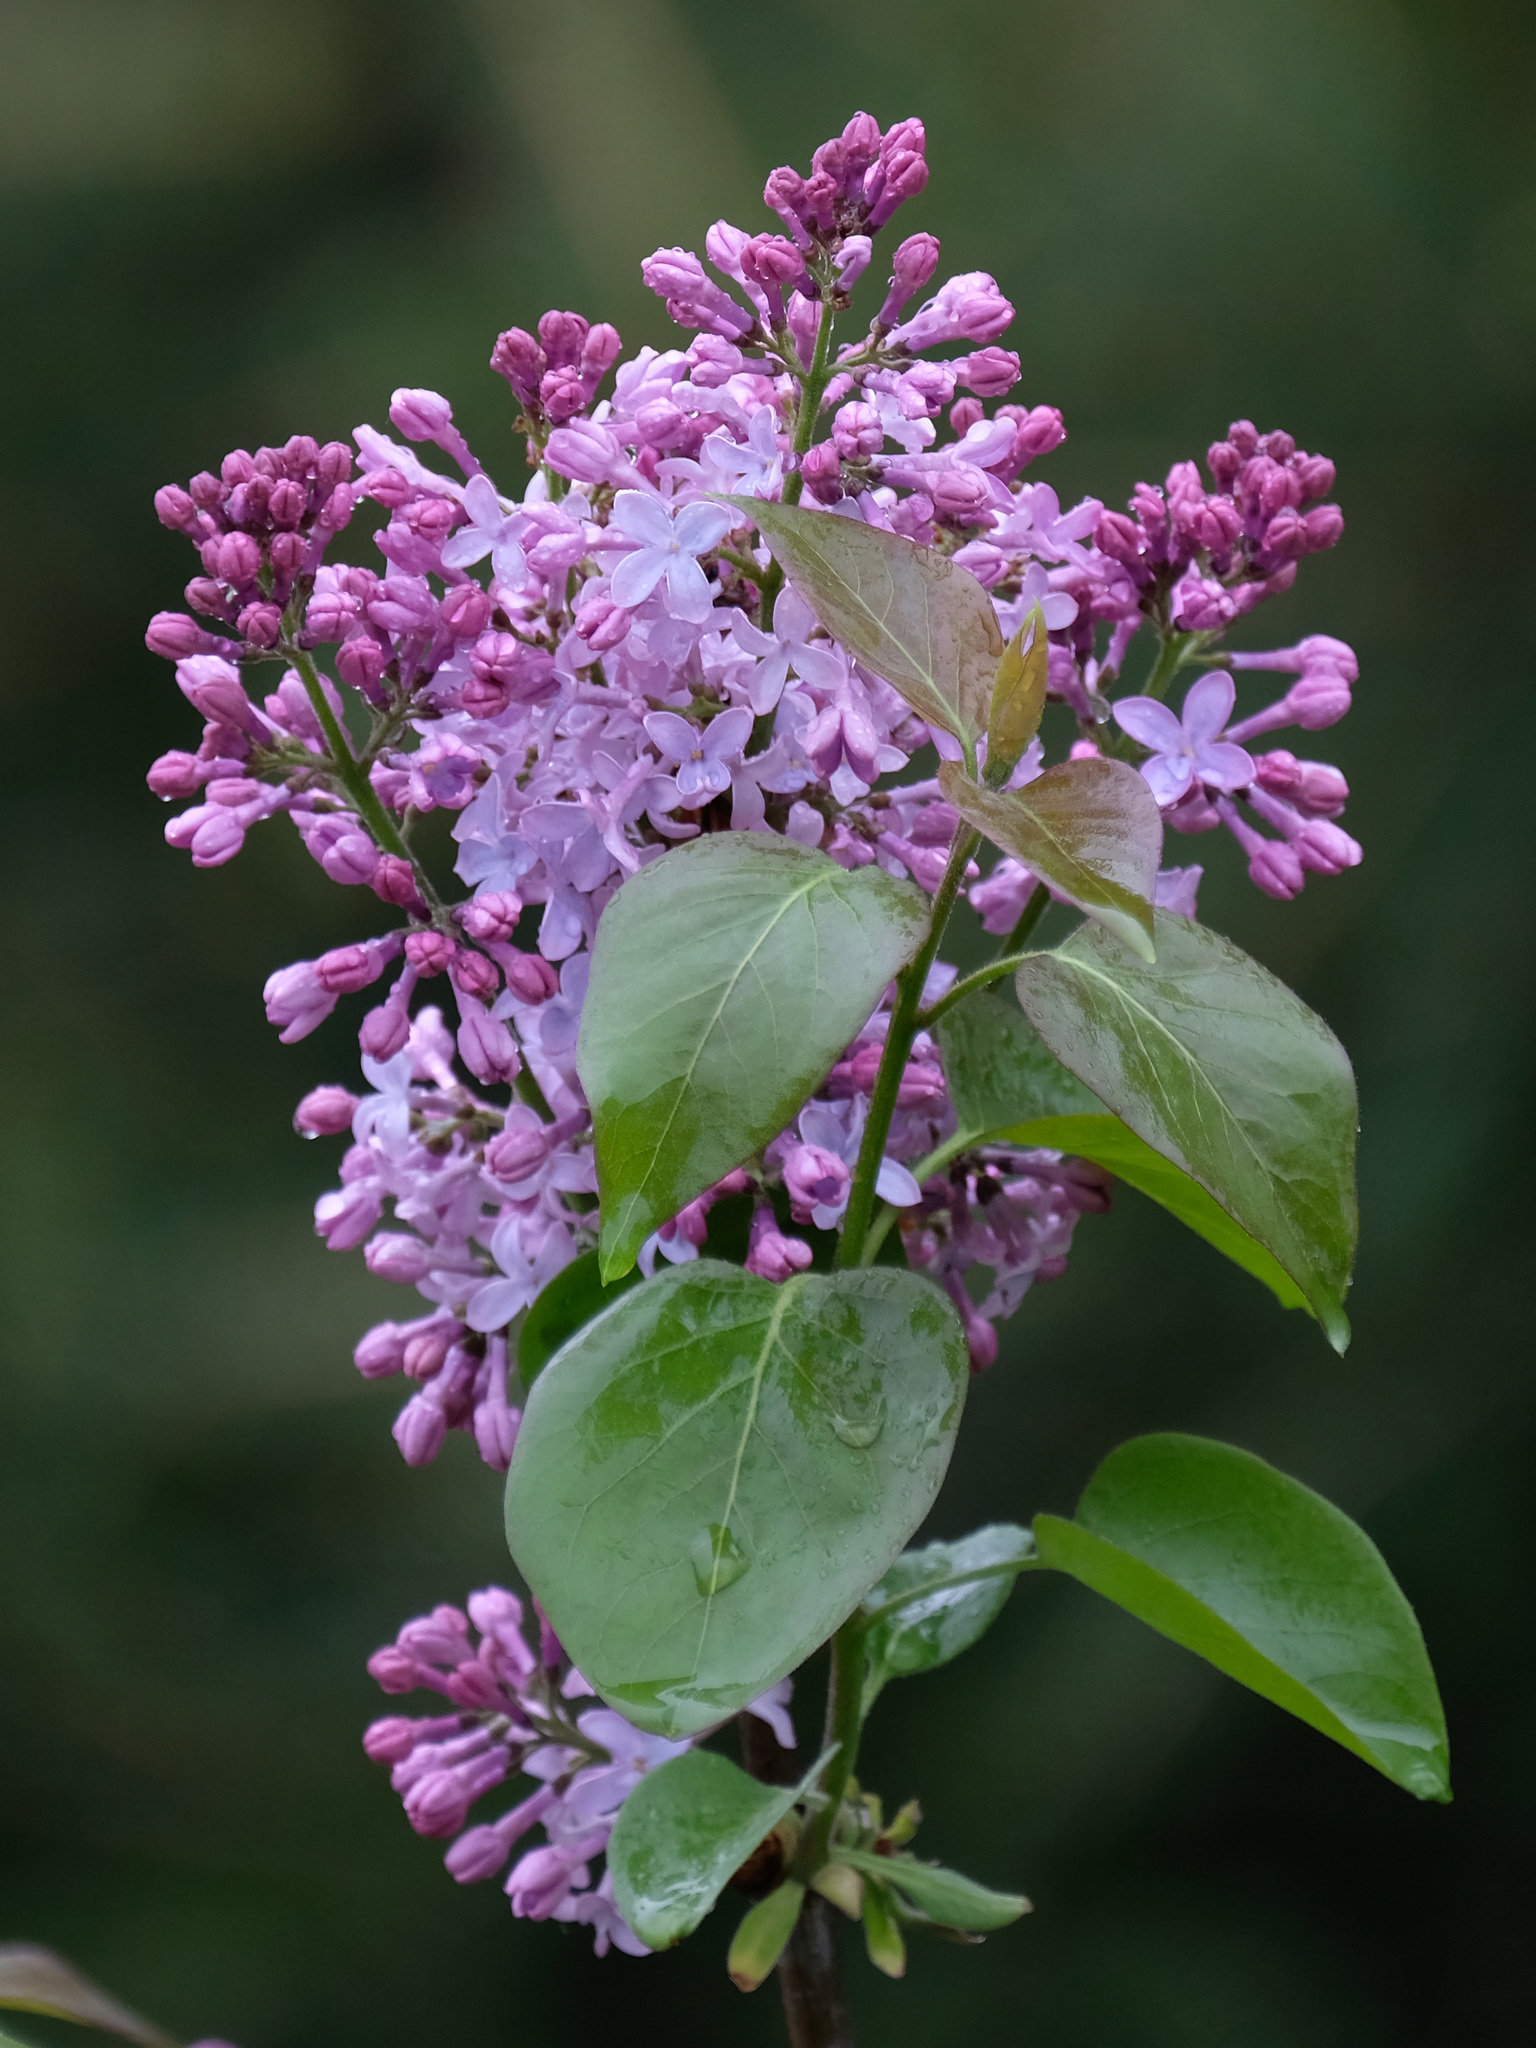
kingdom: Plantae
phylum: Tracheophyta
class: Magnoliopsida
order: Lamiales
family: Oleaceae
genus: Syringa
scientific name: Syringa vulgaris
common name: Common lilac
